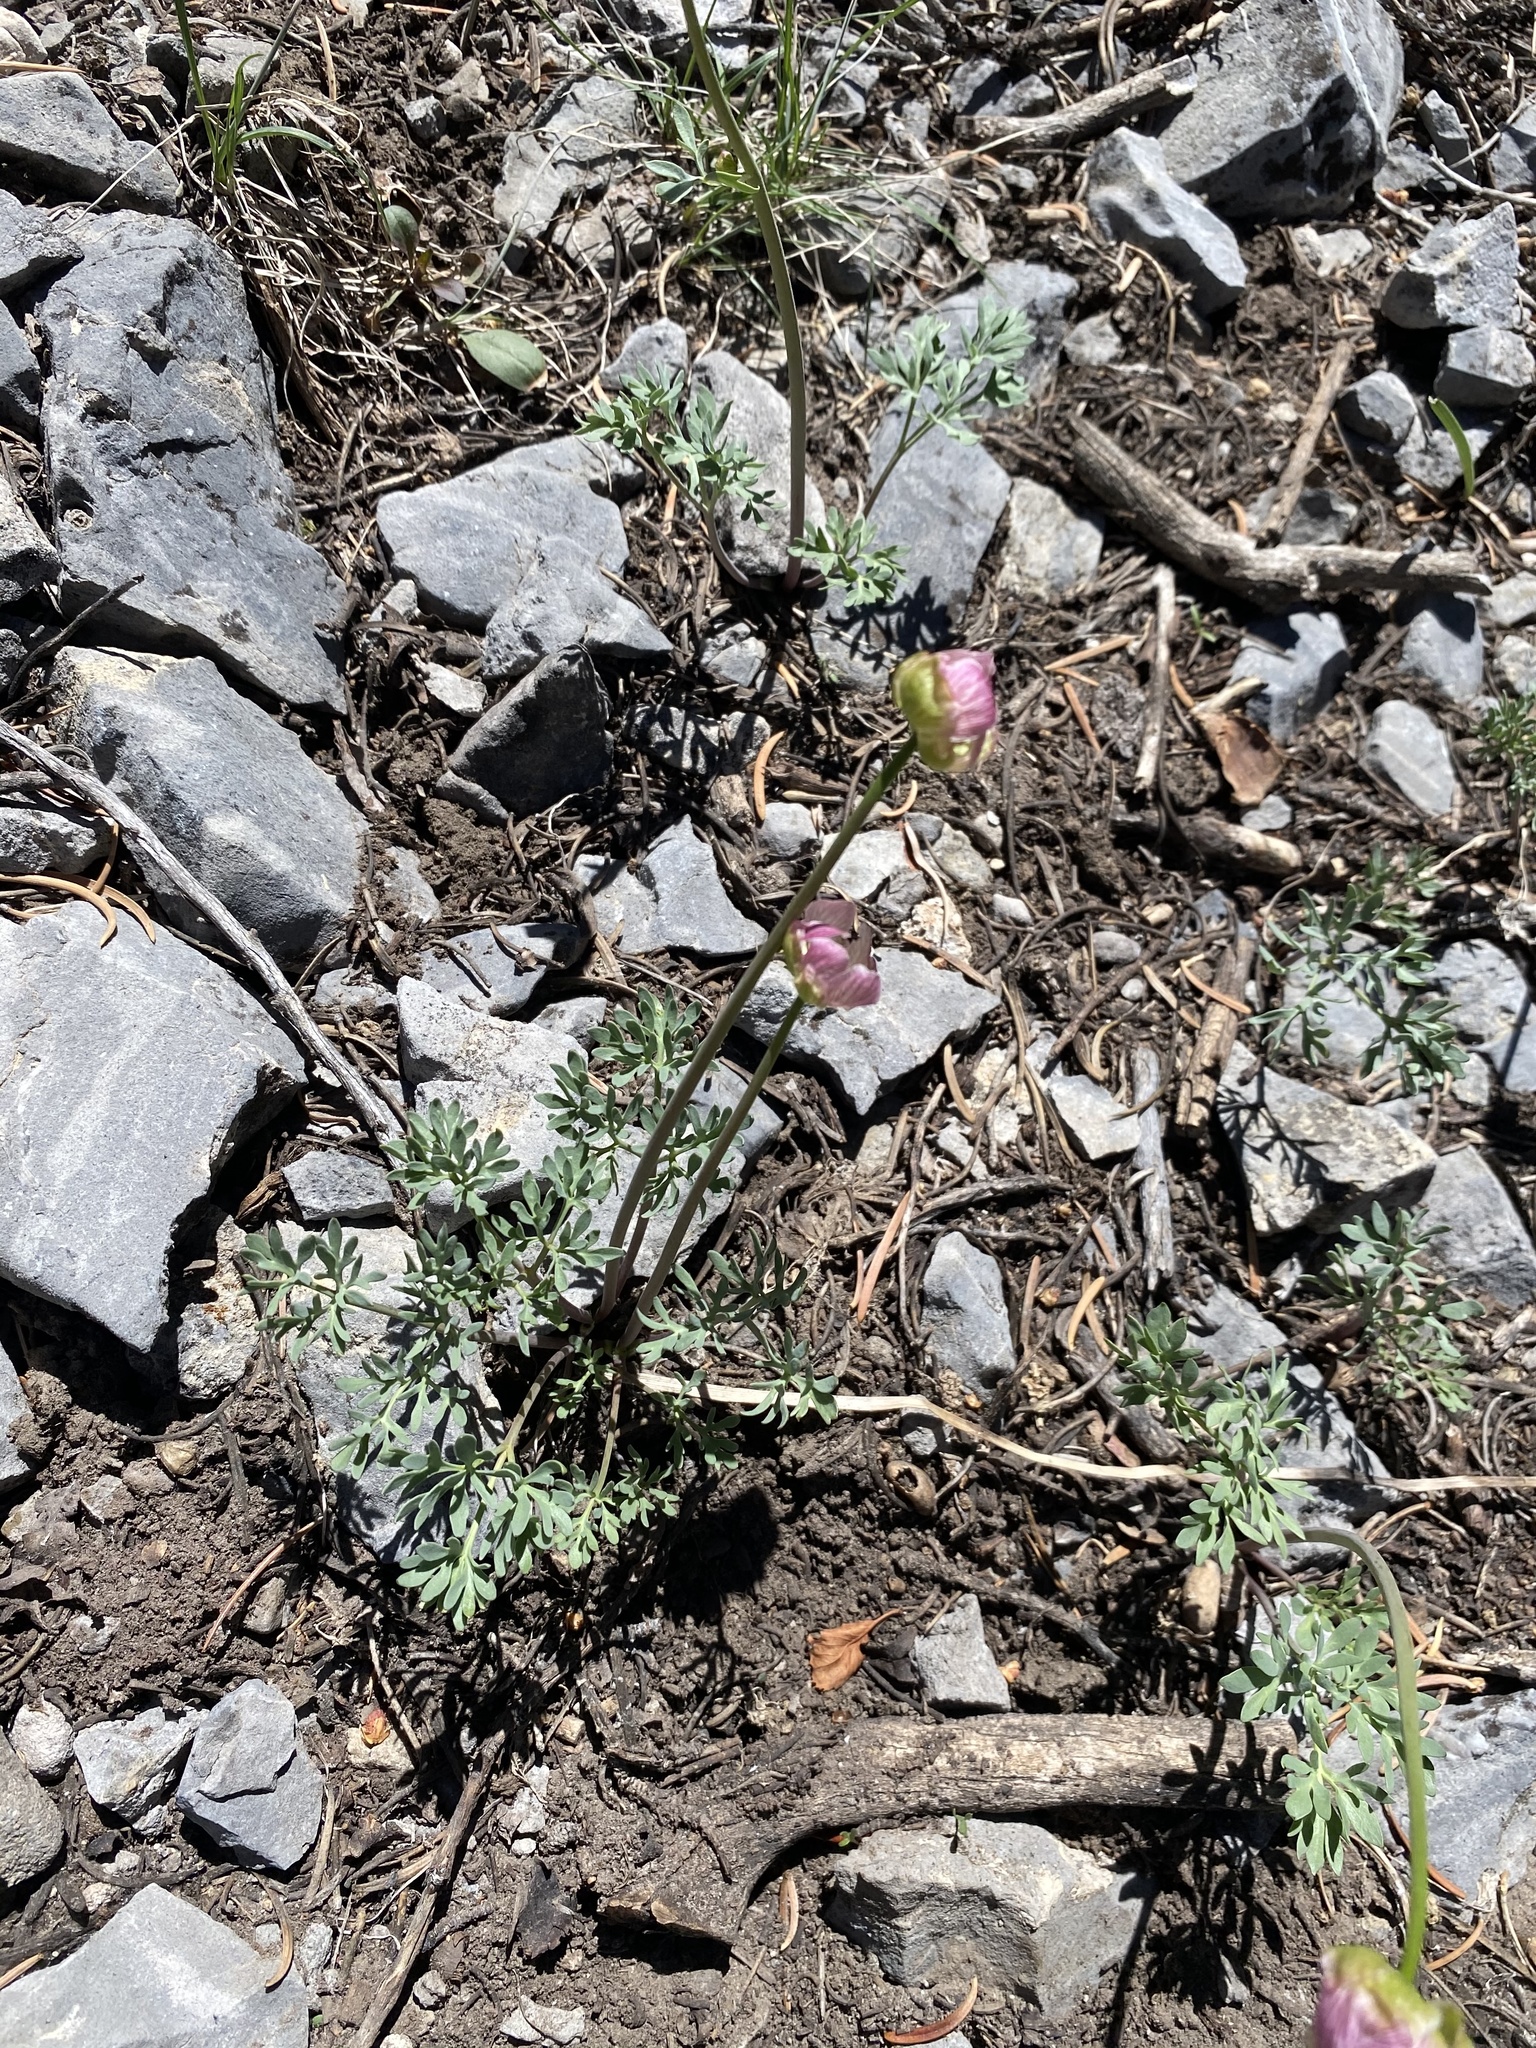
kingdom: Plantae
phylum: Tracheophyta
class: Magnoliopsida
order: Ranunculales
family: Ranunculaceae
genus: Beckwithia
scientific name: Beckwithia andersonii
